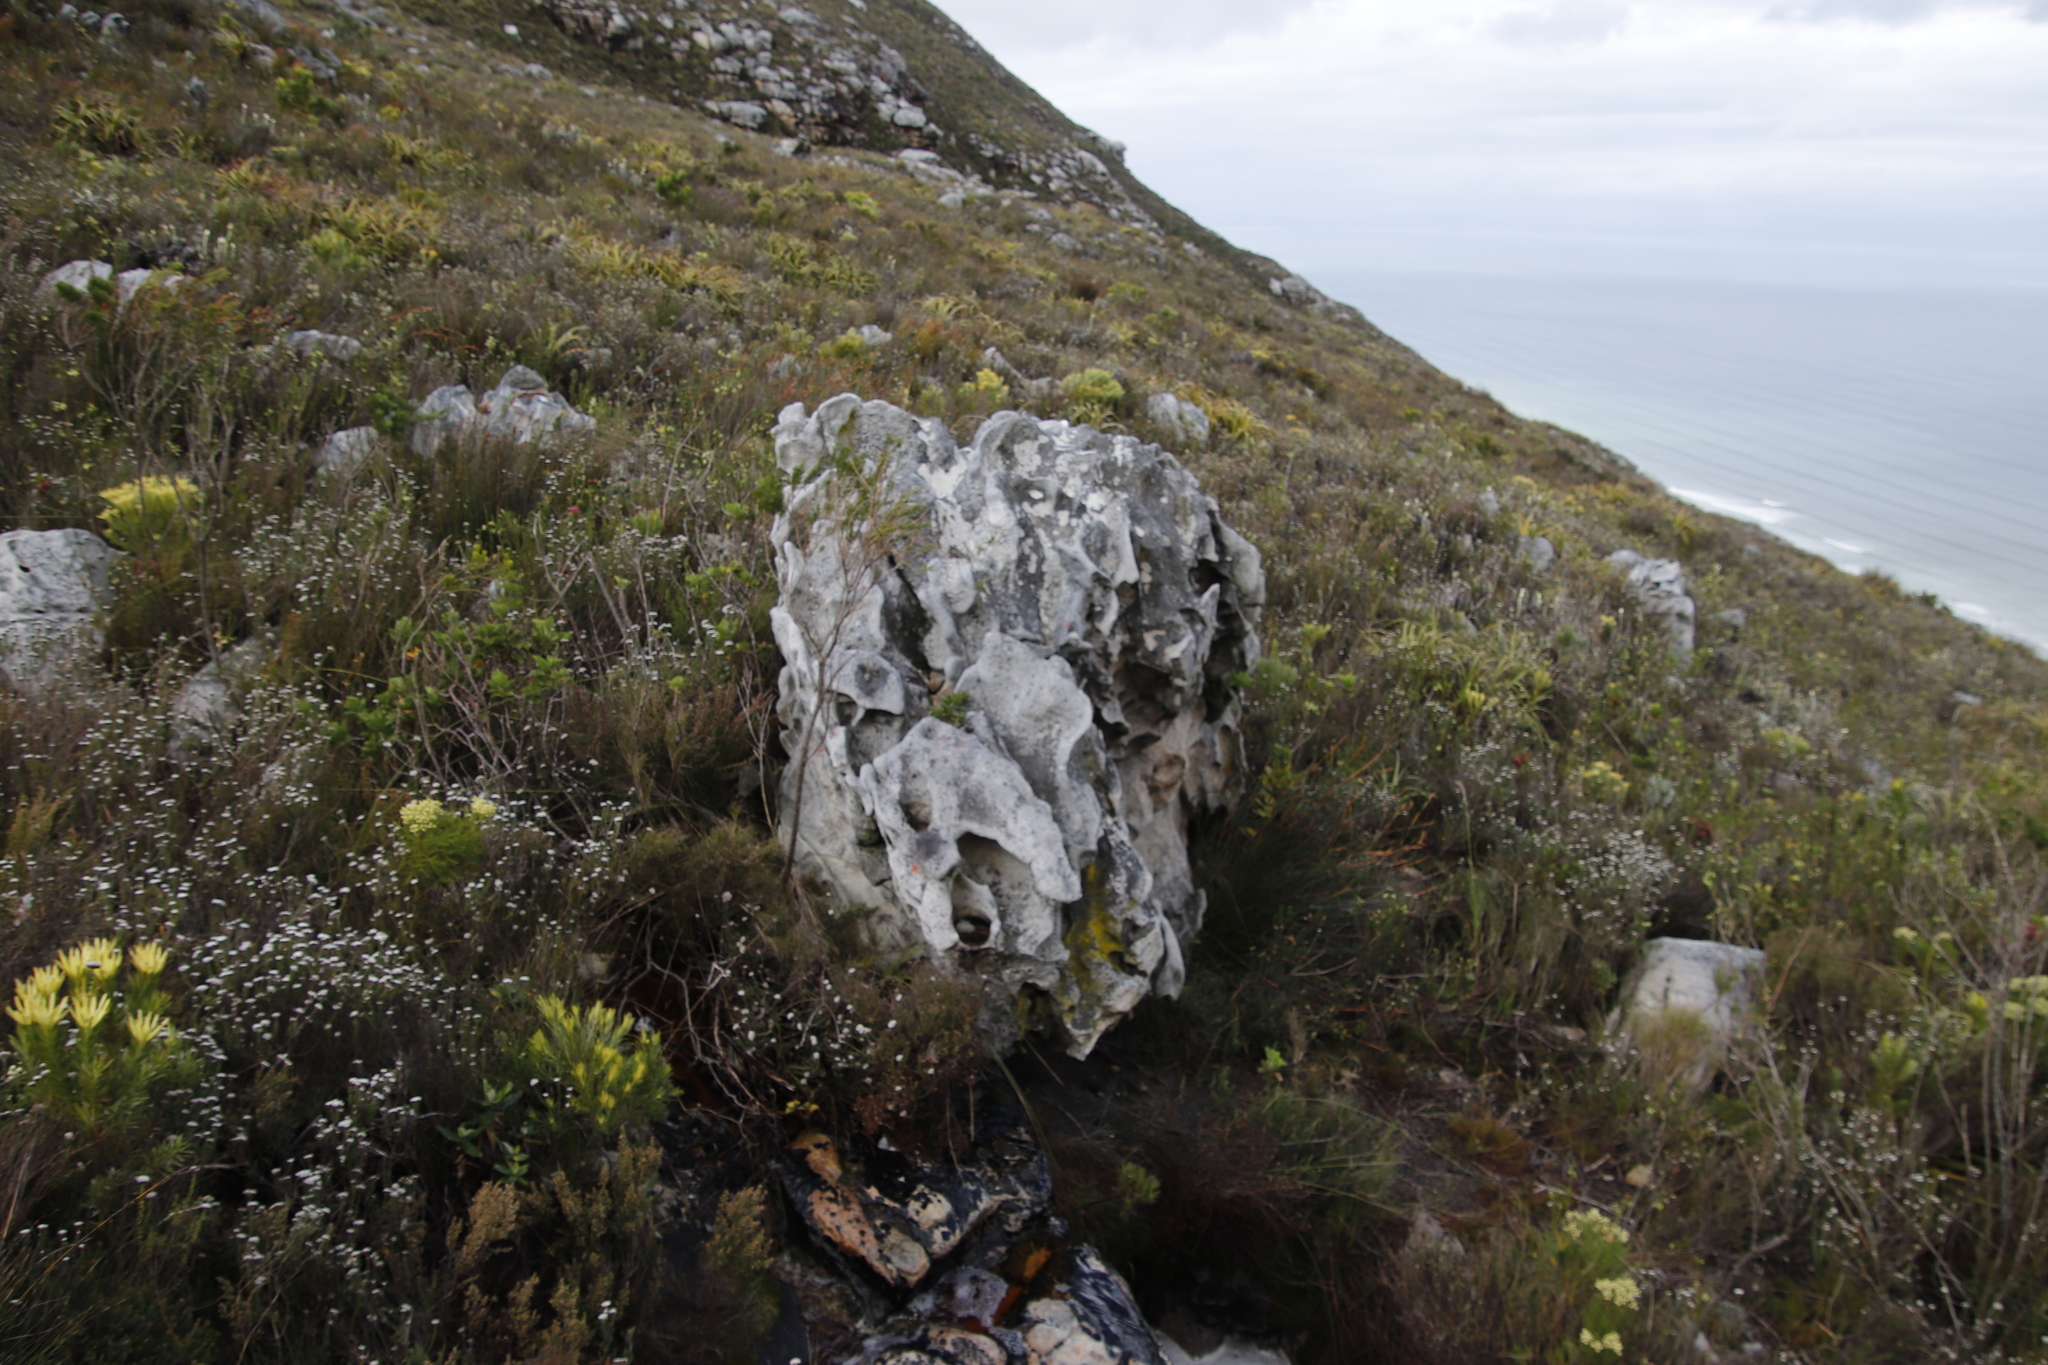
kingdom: Plantae
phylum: Tracheophyta
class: Magnoliopsida
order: Lamiales
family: Scrophulariaceae
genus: Teedia
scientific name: Teedia lucida
